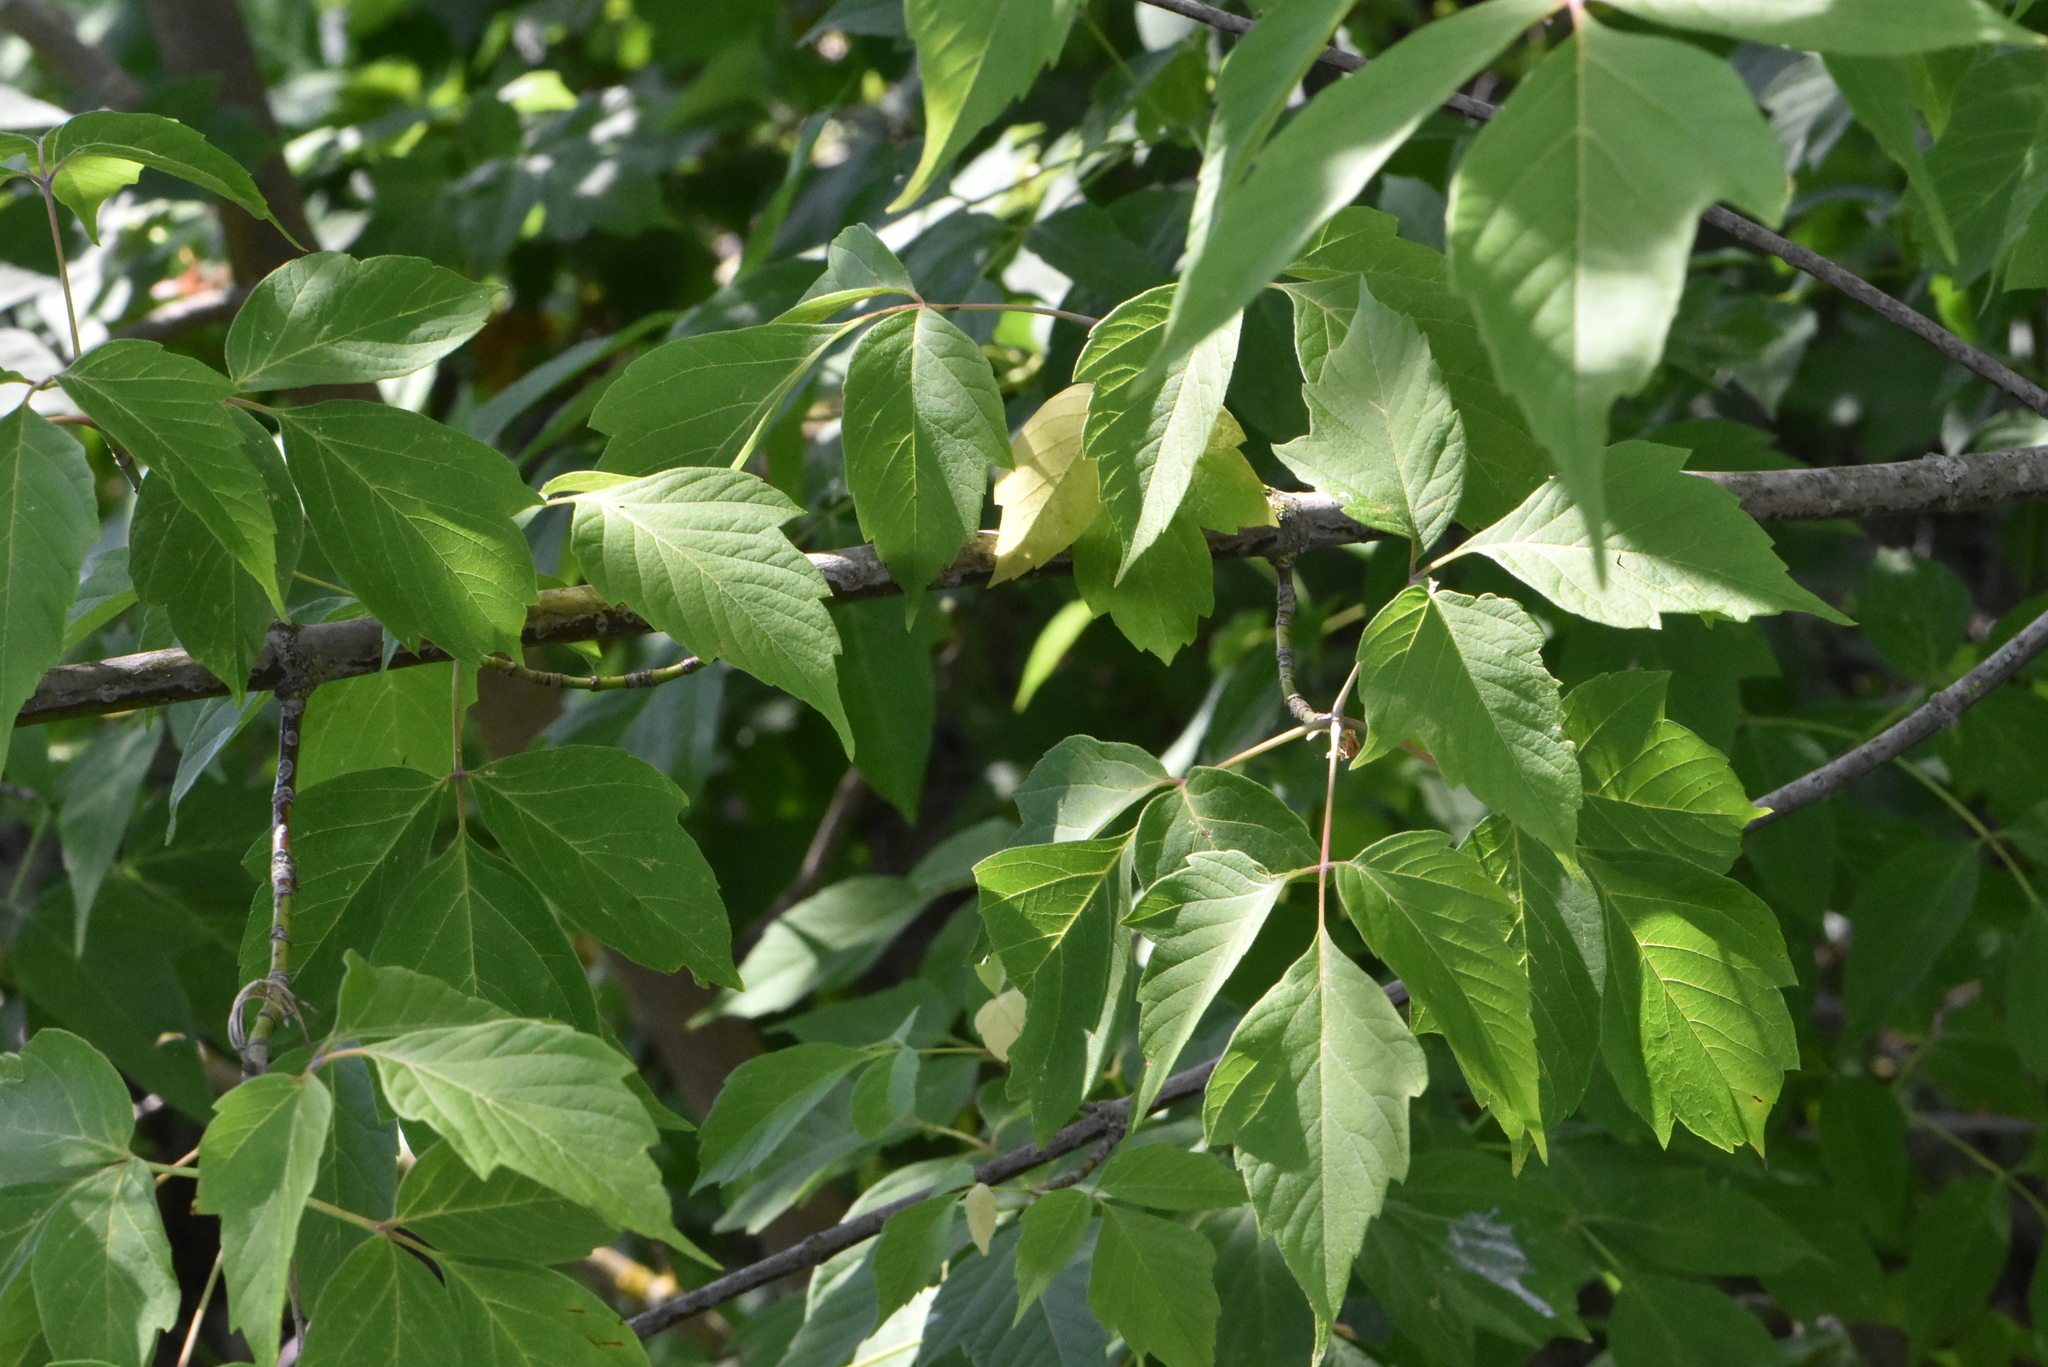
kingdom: Plantae
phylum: Tracheophyta
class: Magnoliopsida
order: Sapindales
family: Sapindaceae
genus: Acer
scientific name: Acer negundo
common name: Ashleaf maple
